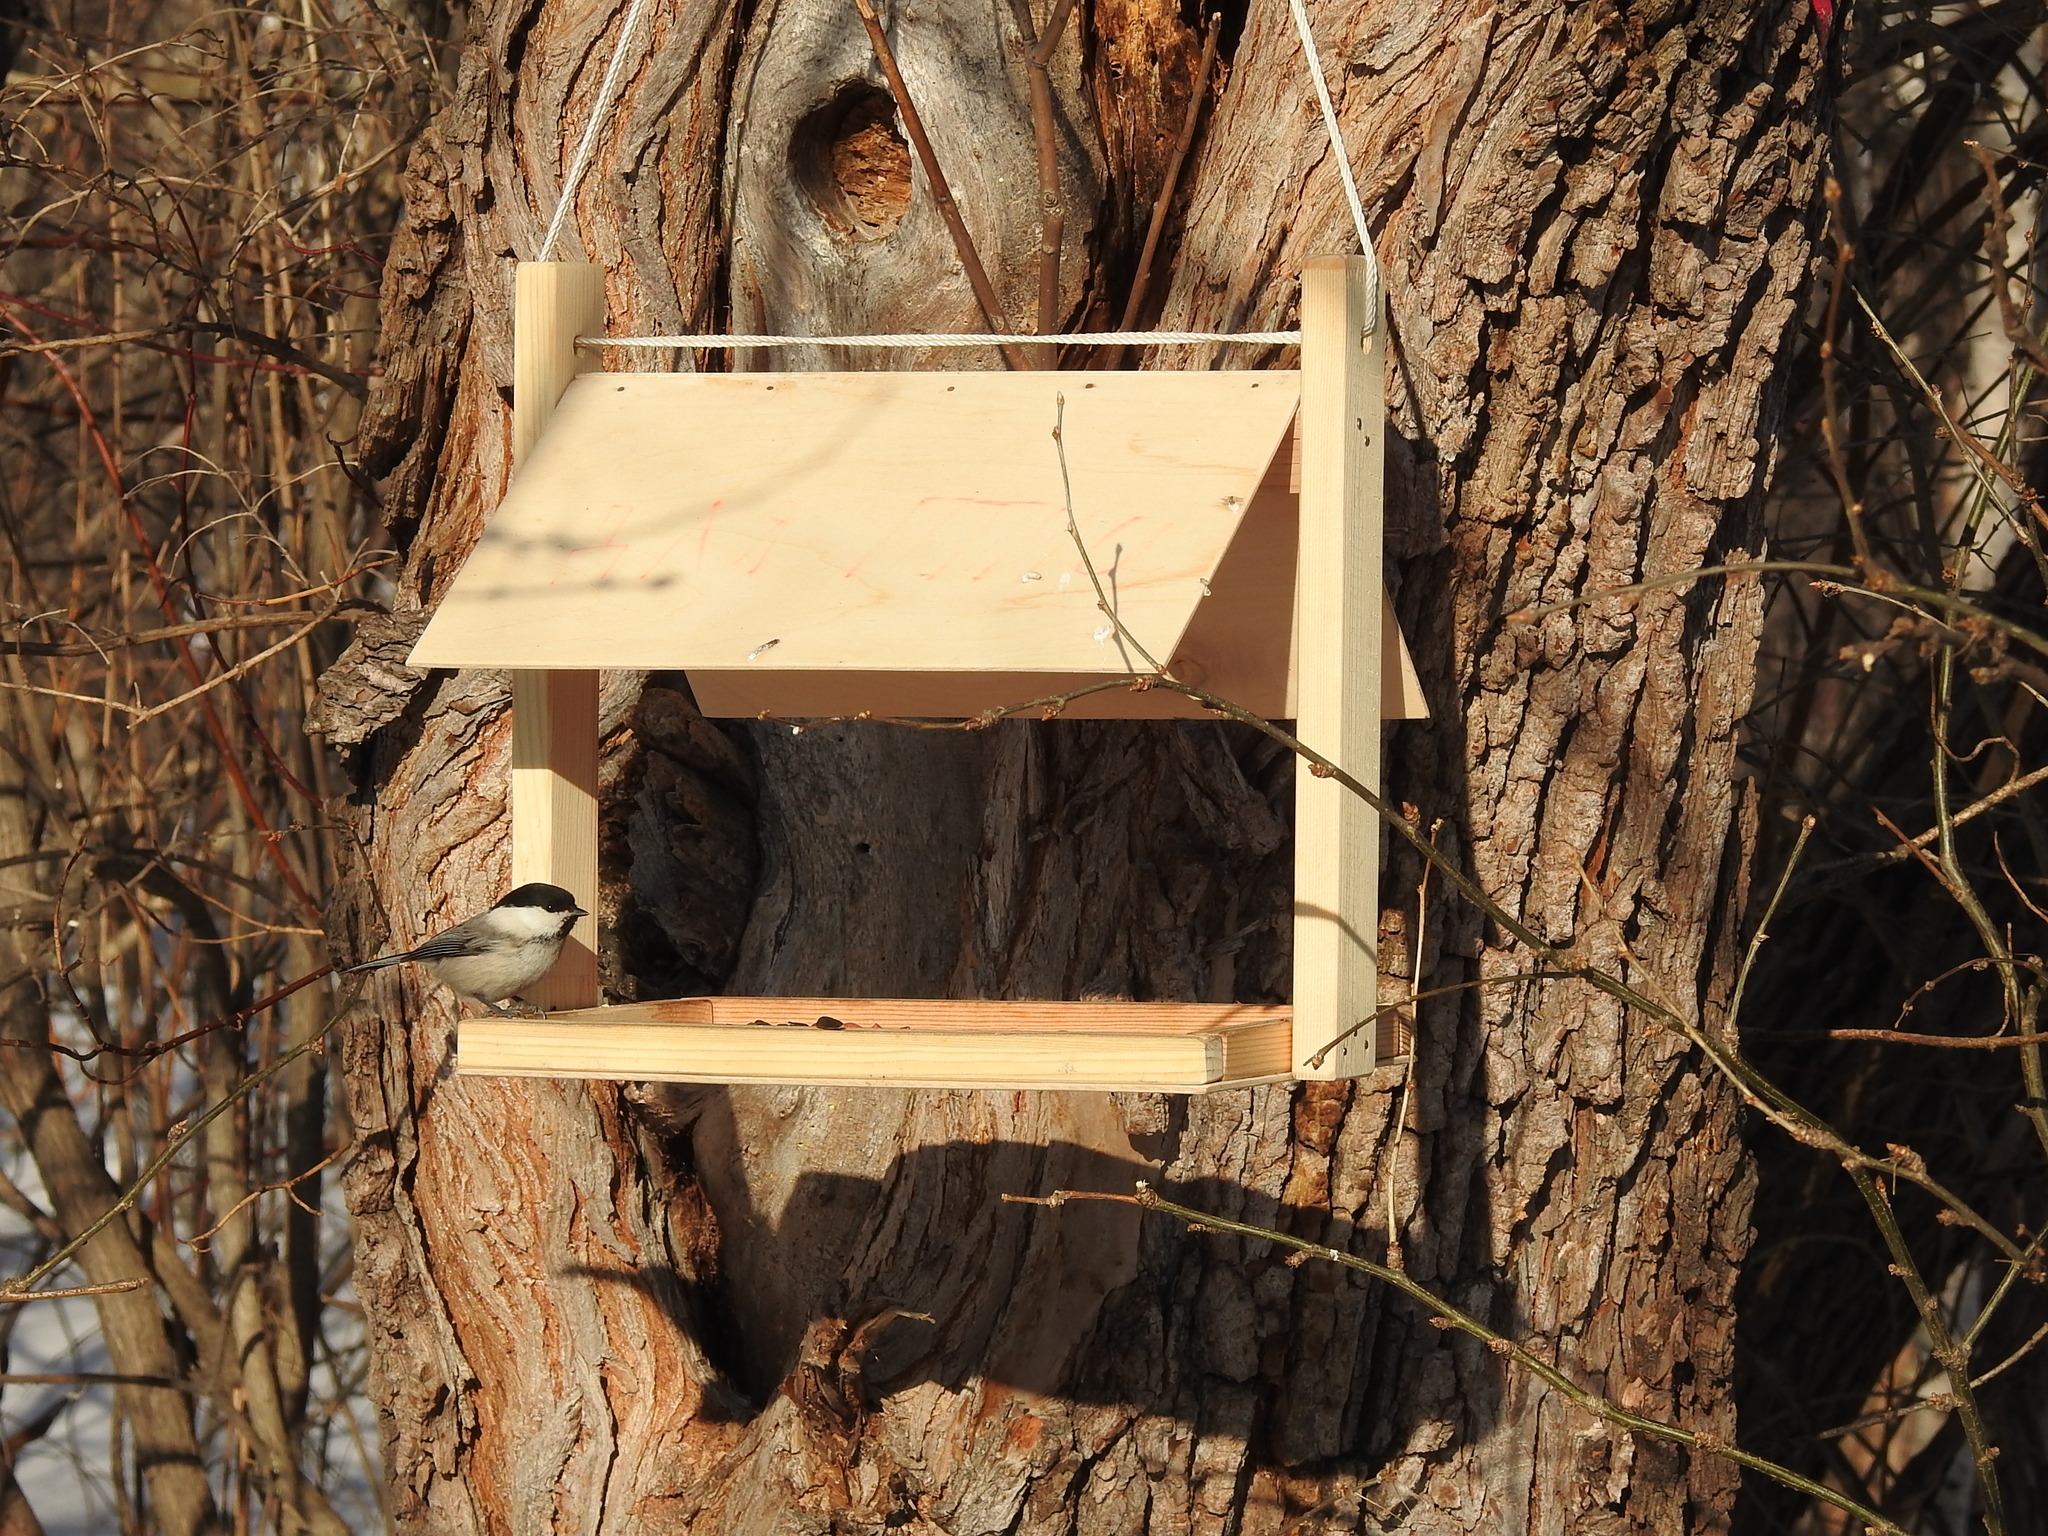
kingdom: Animalia
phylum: Chordata
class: Aves
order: Passeriformes
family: Paridae
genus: Poecile
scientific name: Poecile montanus
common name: Willow tit
